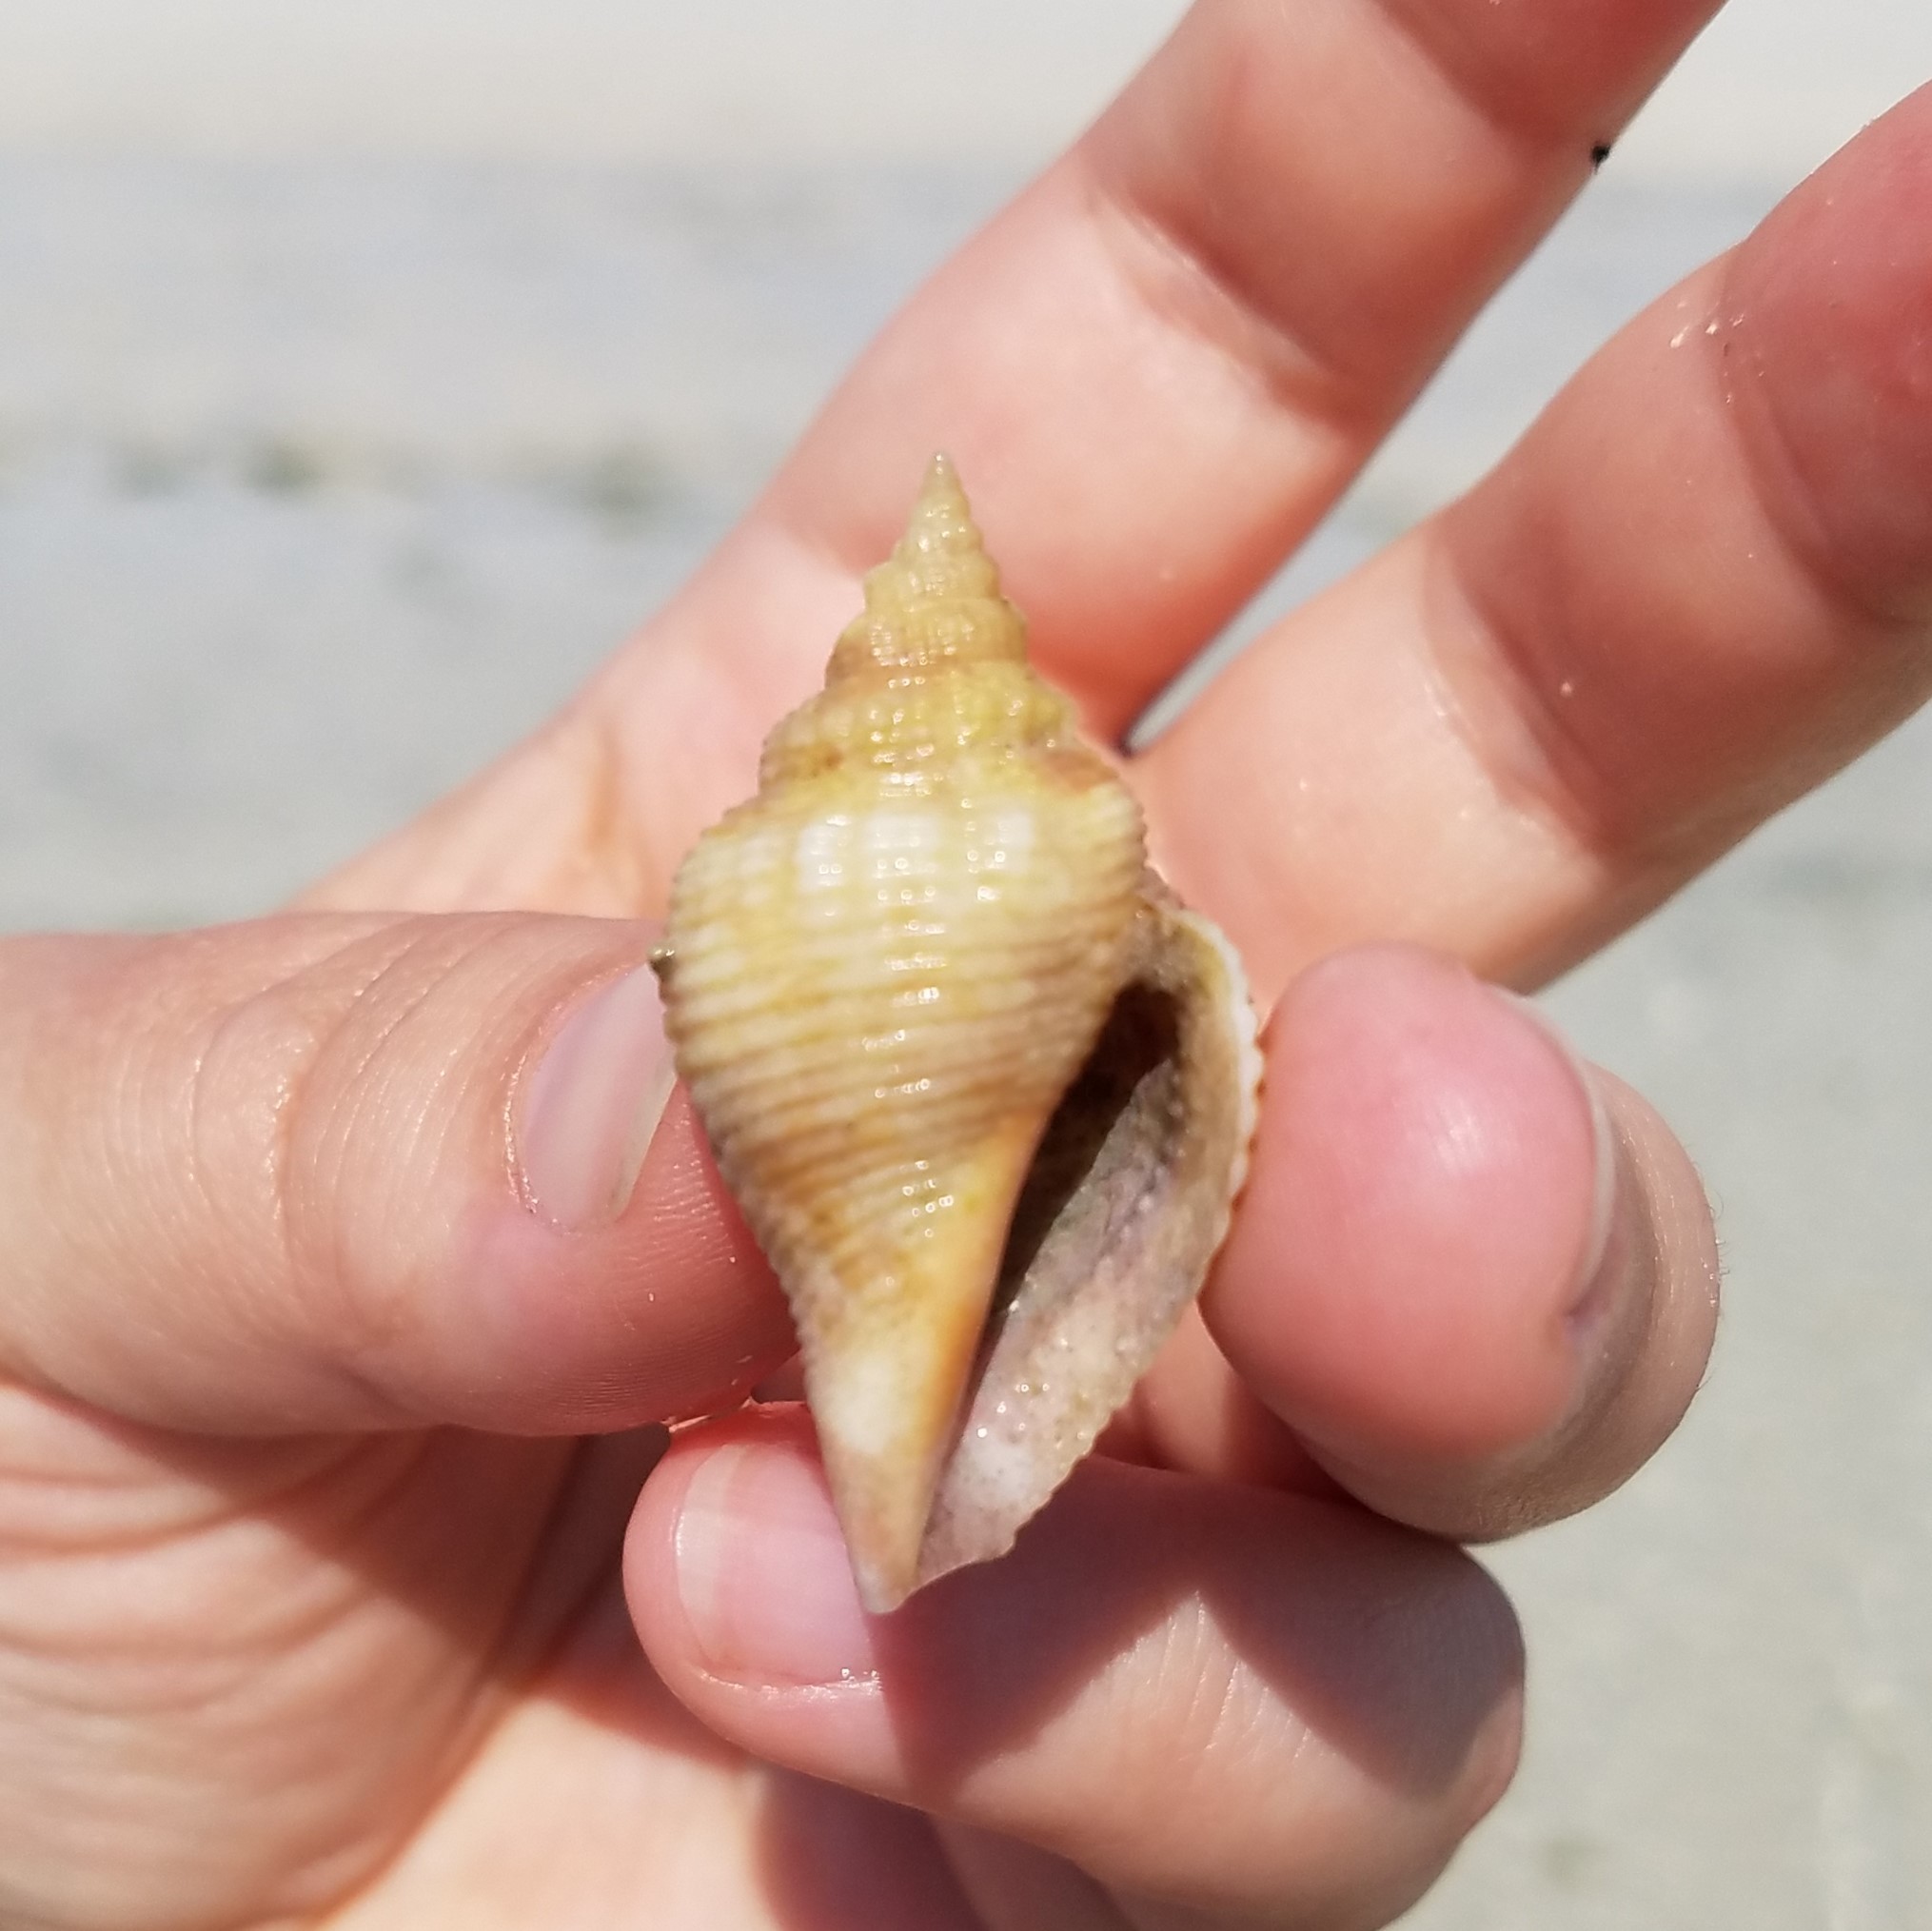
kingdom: Animalia
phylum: Mollusca
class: Gastropoda
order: Littorinimorpha
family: Strombidae
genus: Strombus
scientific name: Strombus alatus
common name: Florida fighting conch
